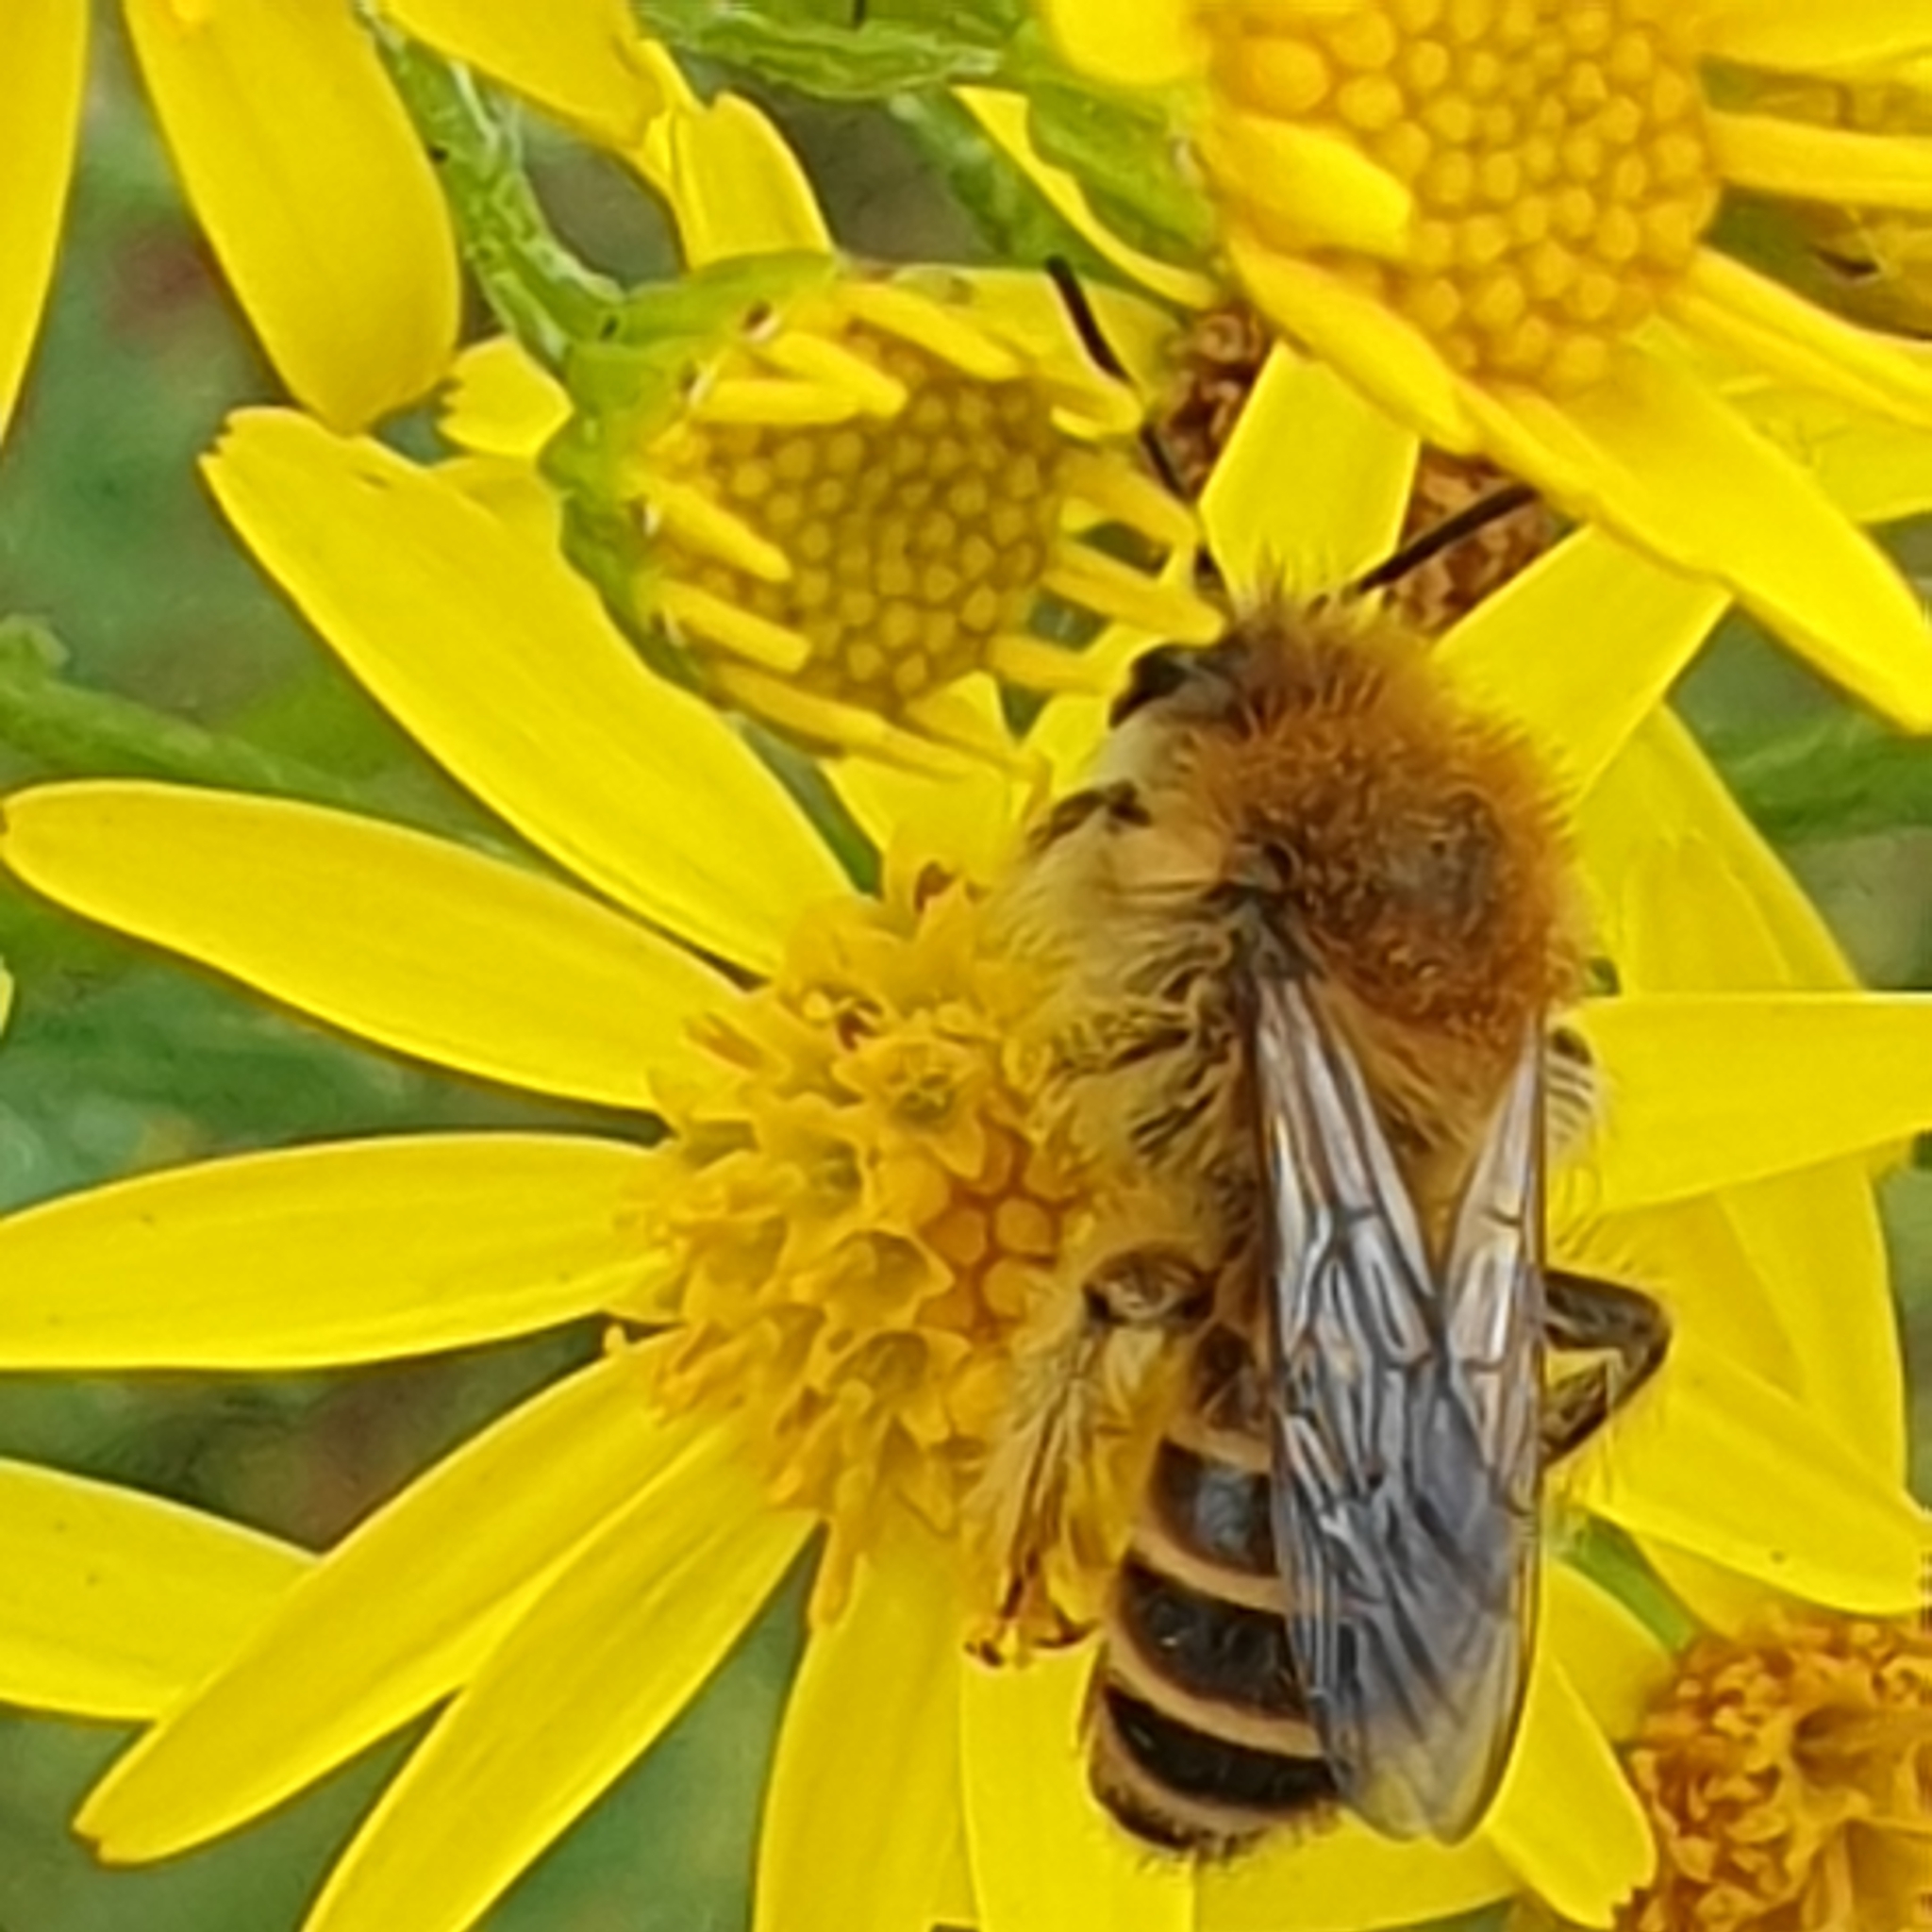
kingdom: Animalia
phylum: Arthropoda
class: Insecta
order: Hymenoptera
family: Melittidae
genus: Dasypoda
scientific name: Dasypoda hirtipes
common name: Pantaloon bee
